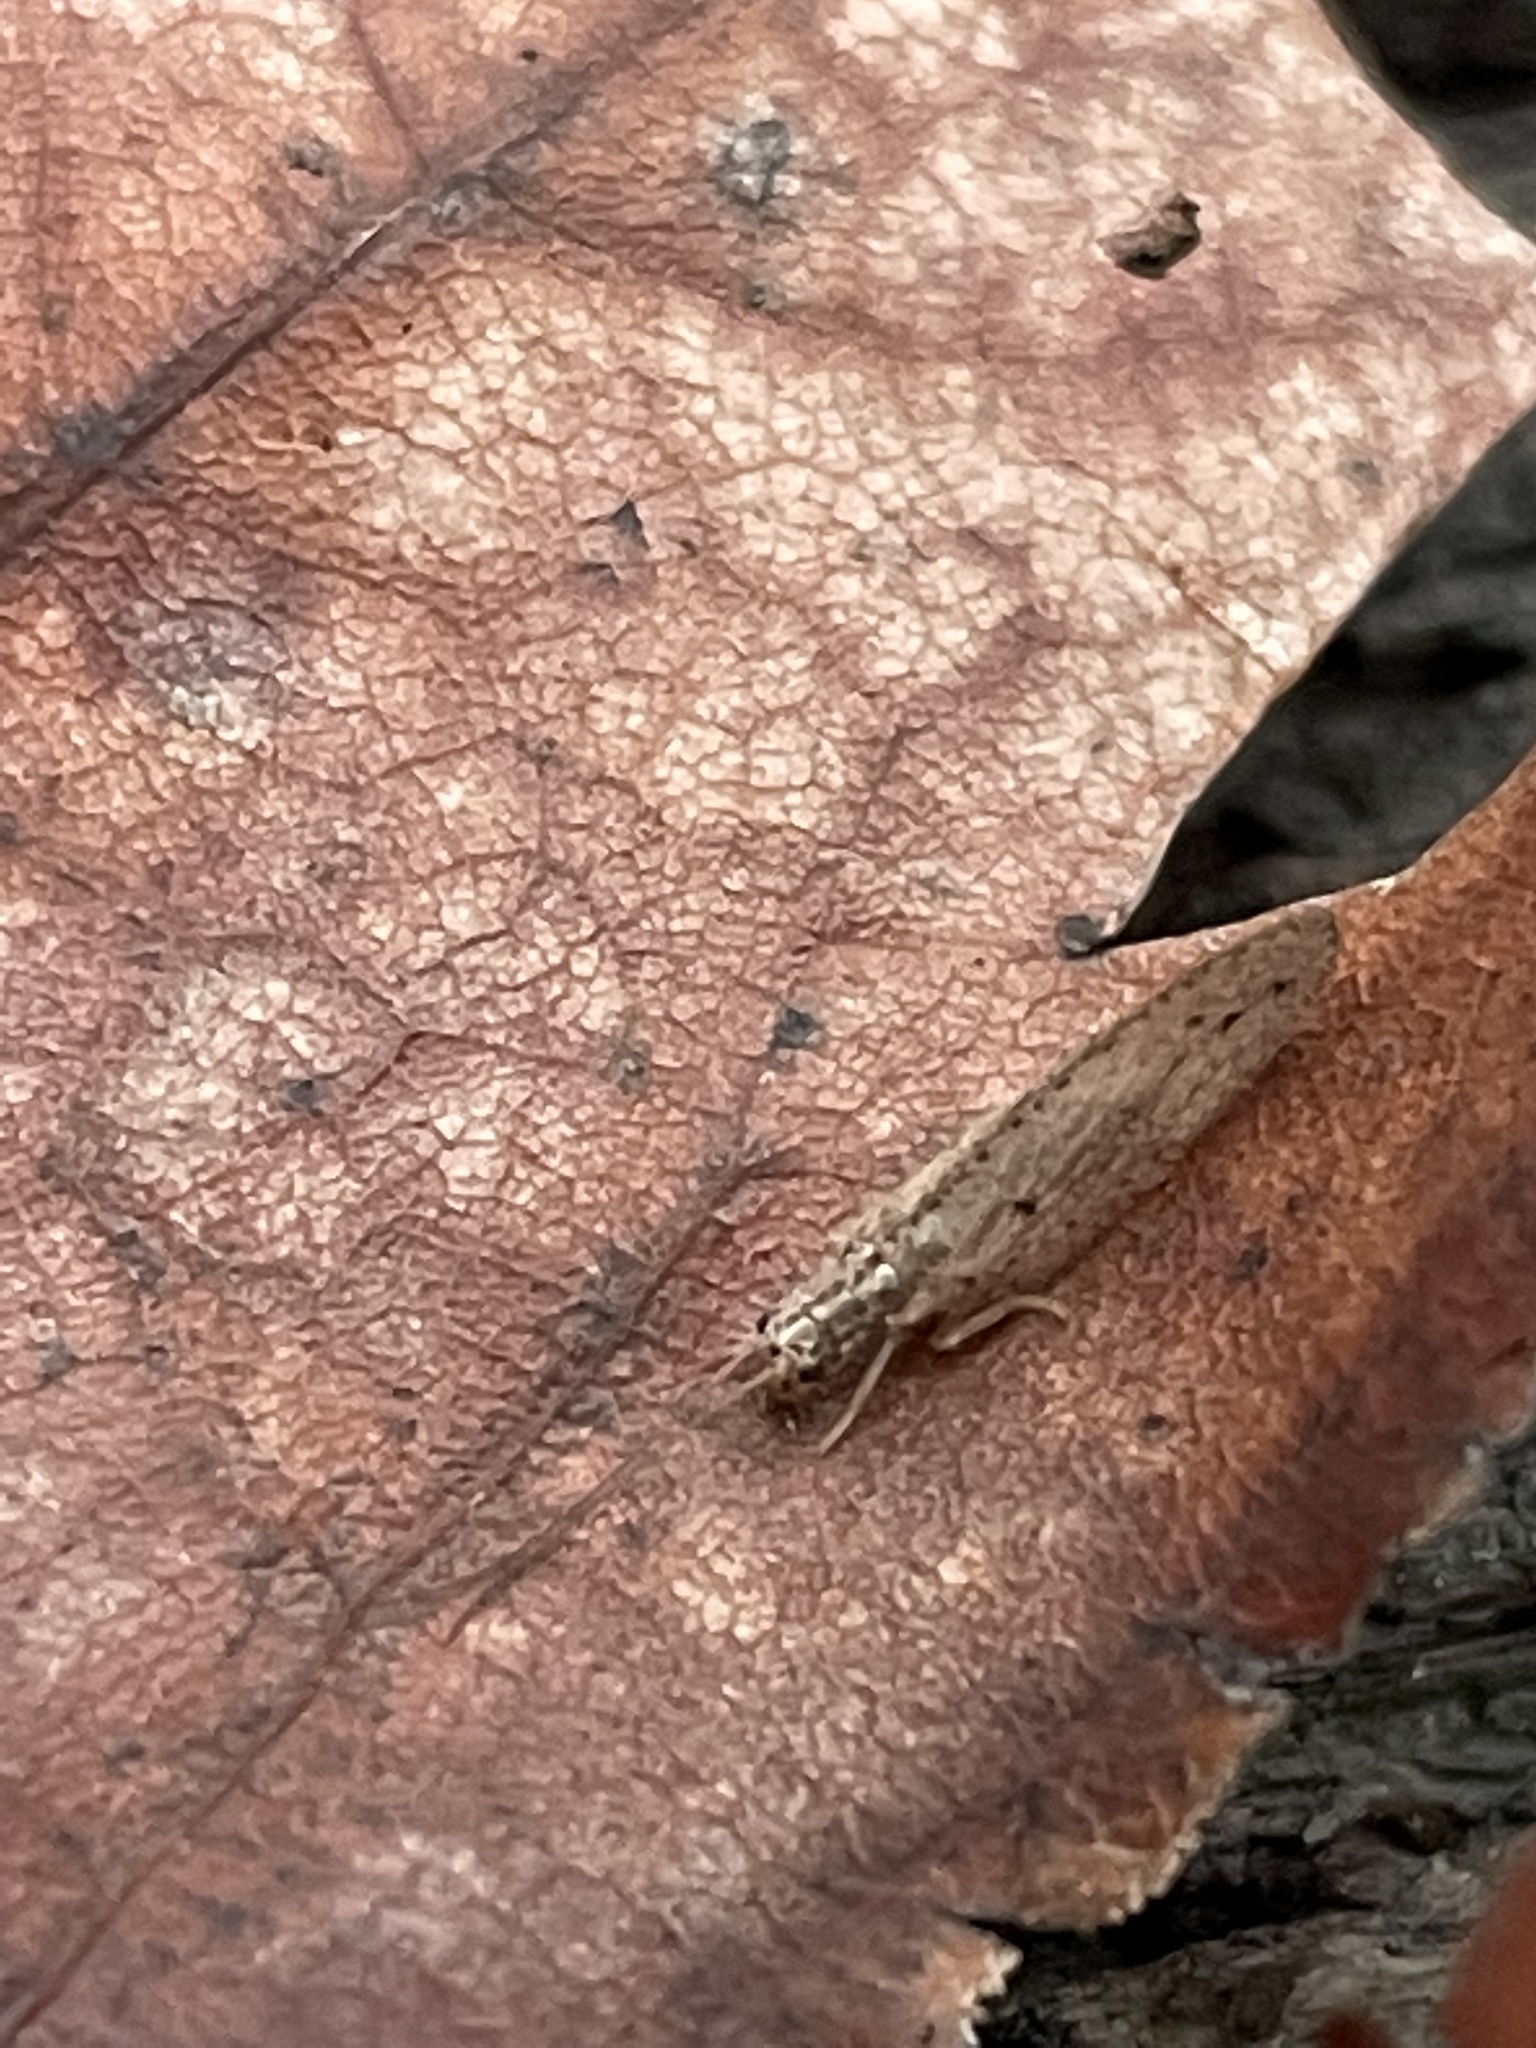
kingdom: Animalia
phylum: Arthropoda
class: Insecta
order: Neuroptera
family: Hemerobiidae
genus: Micromus
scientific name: Micromus subanticus
